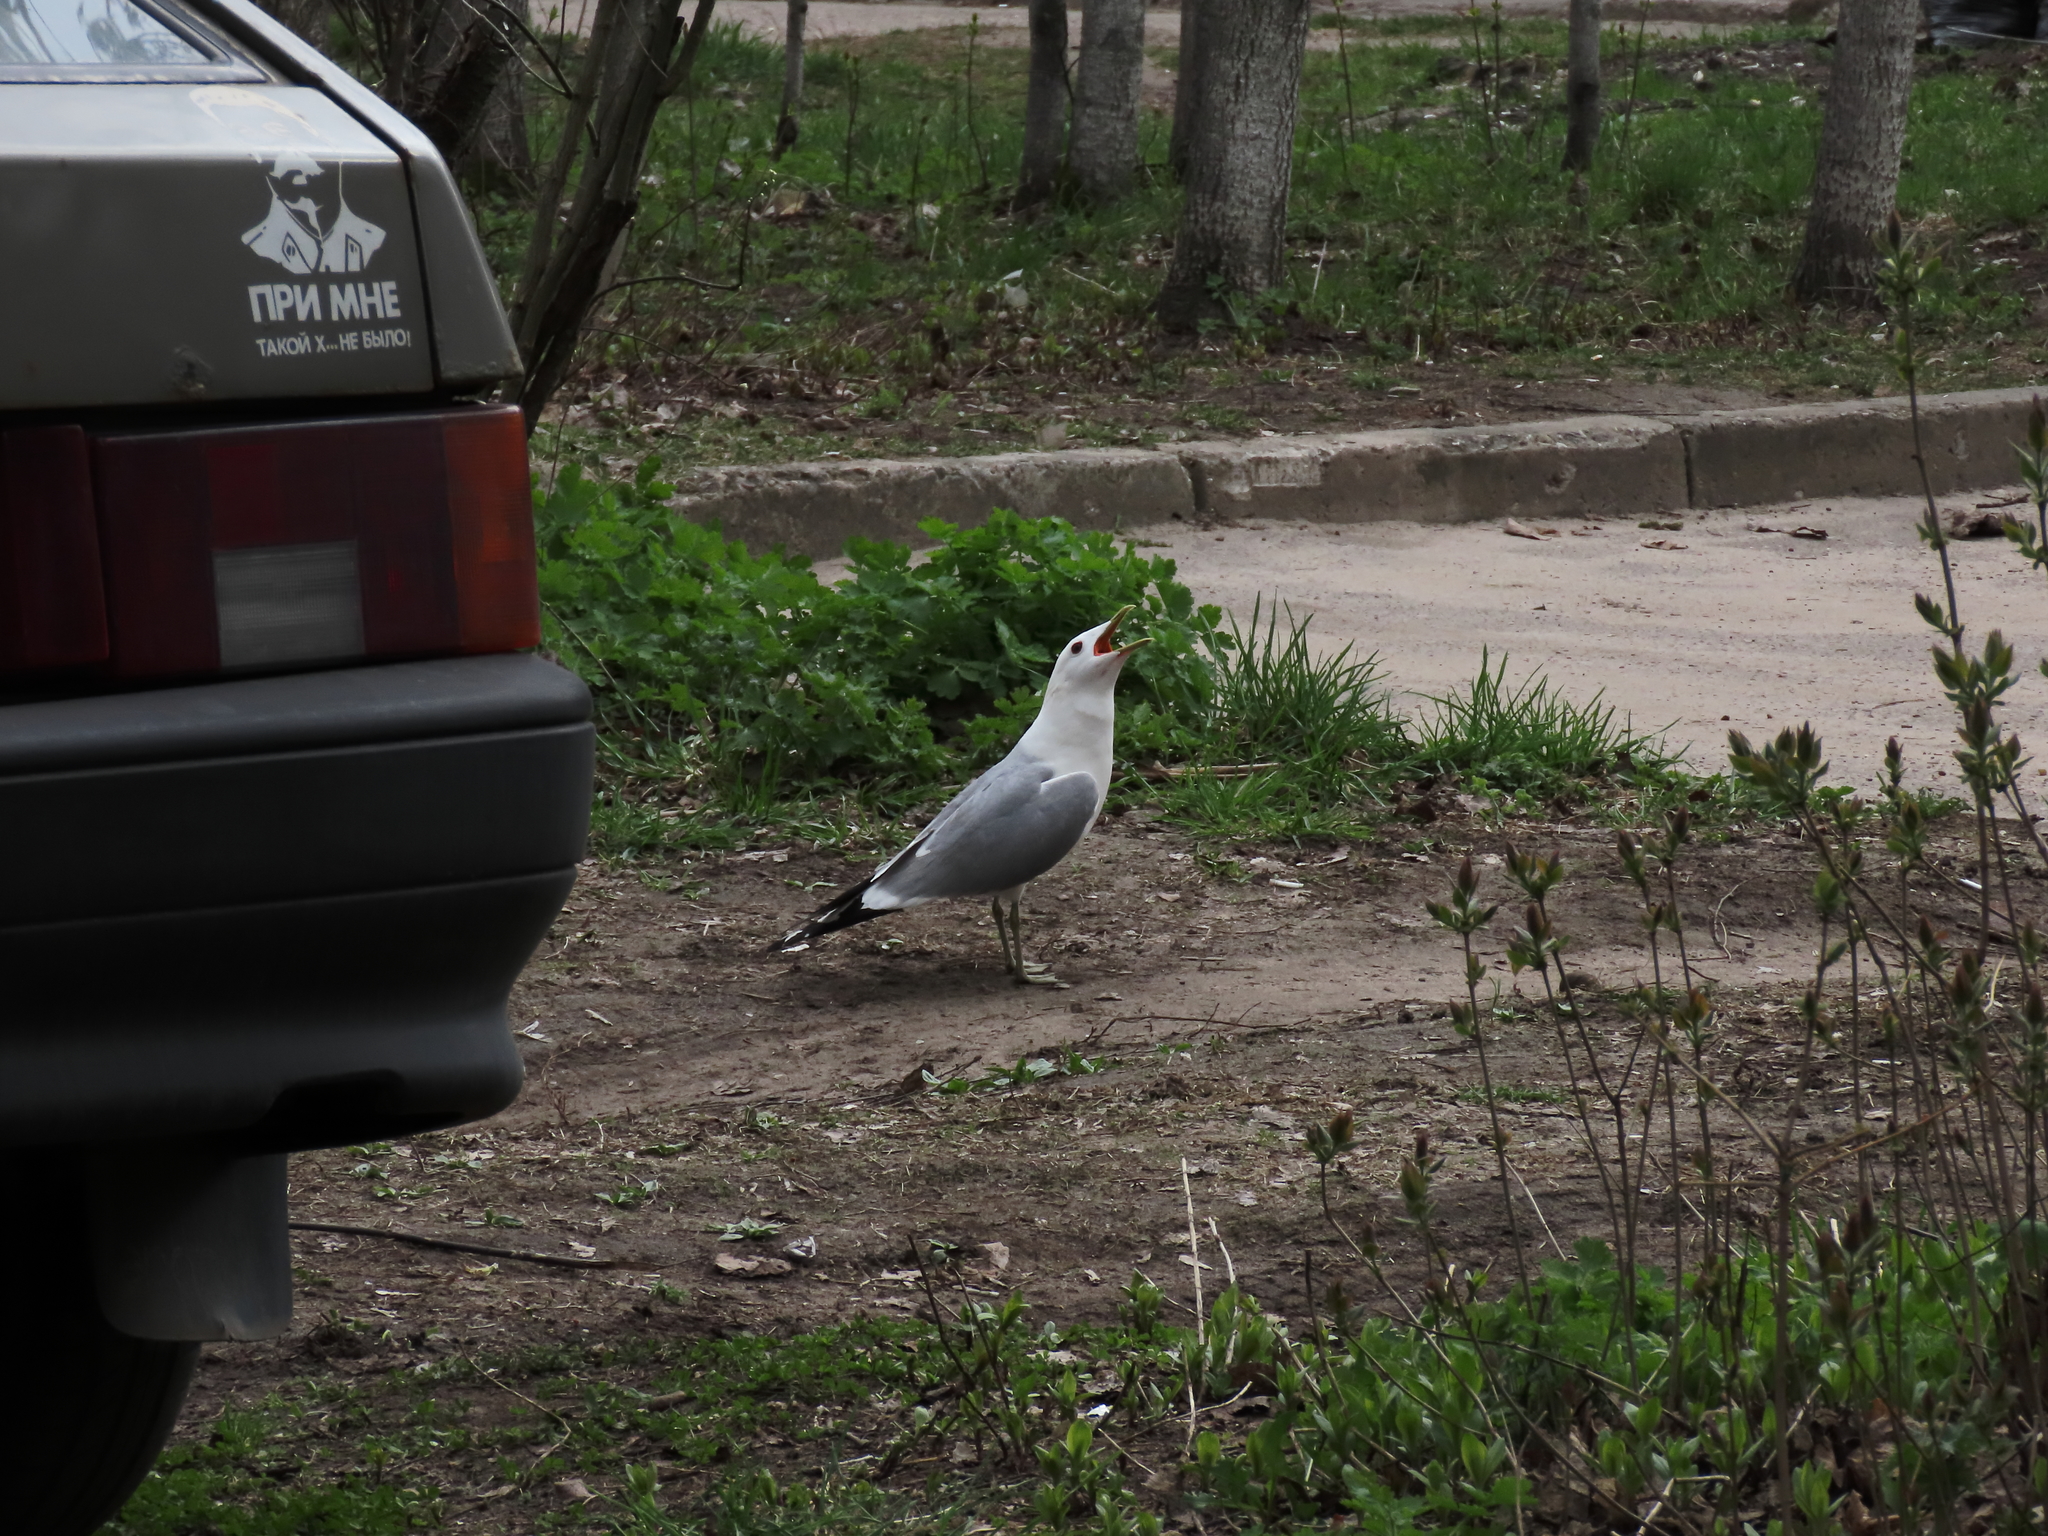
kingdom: Animalia
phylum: Chordata
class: Aves
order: Charadriiformes
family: Laridae
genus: Larus
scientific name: Larus canus
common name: Mew gull
